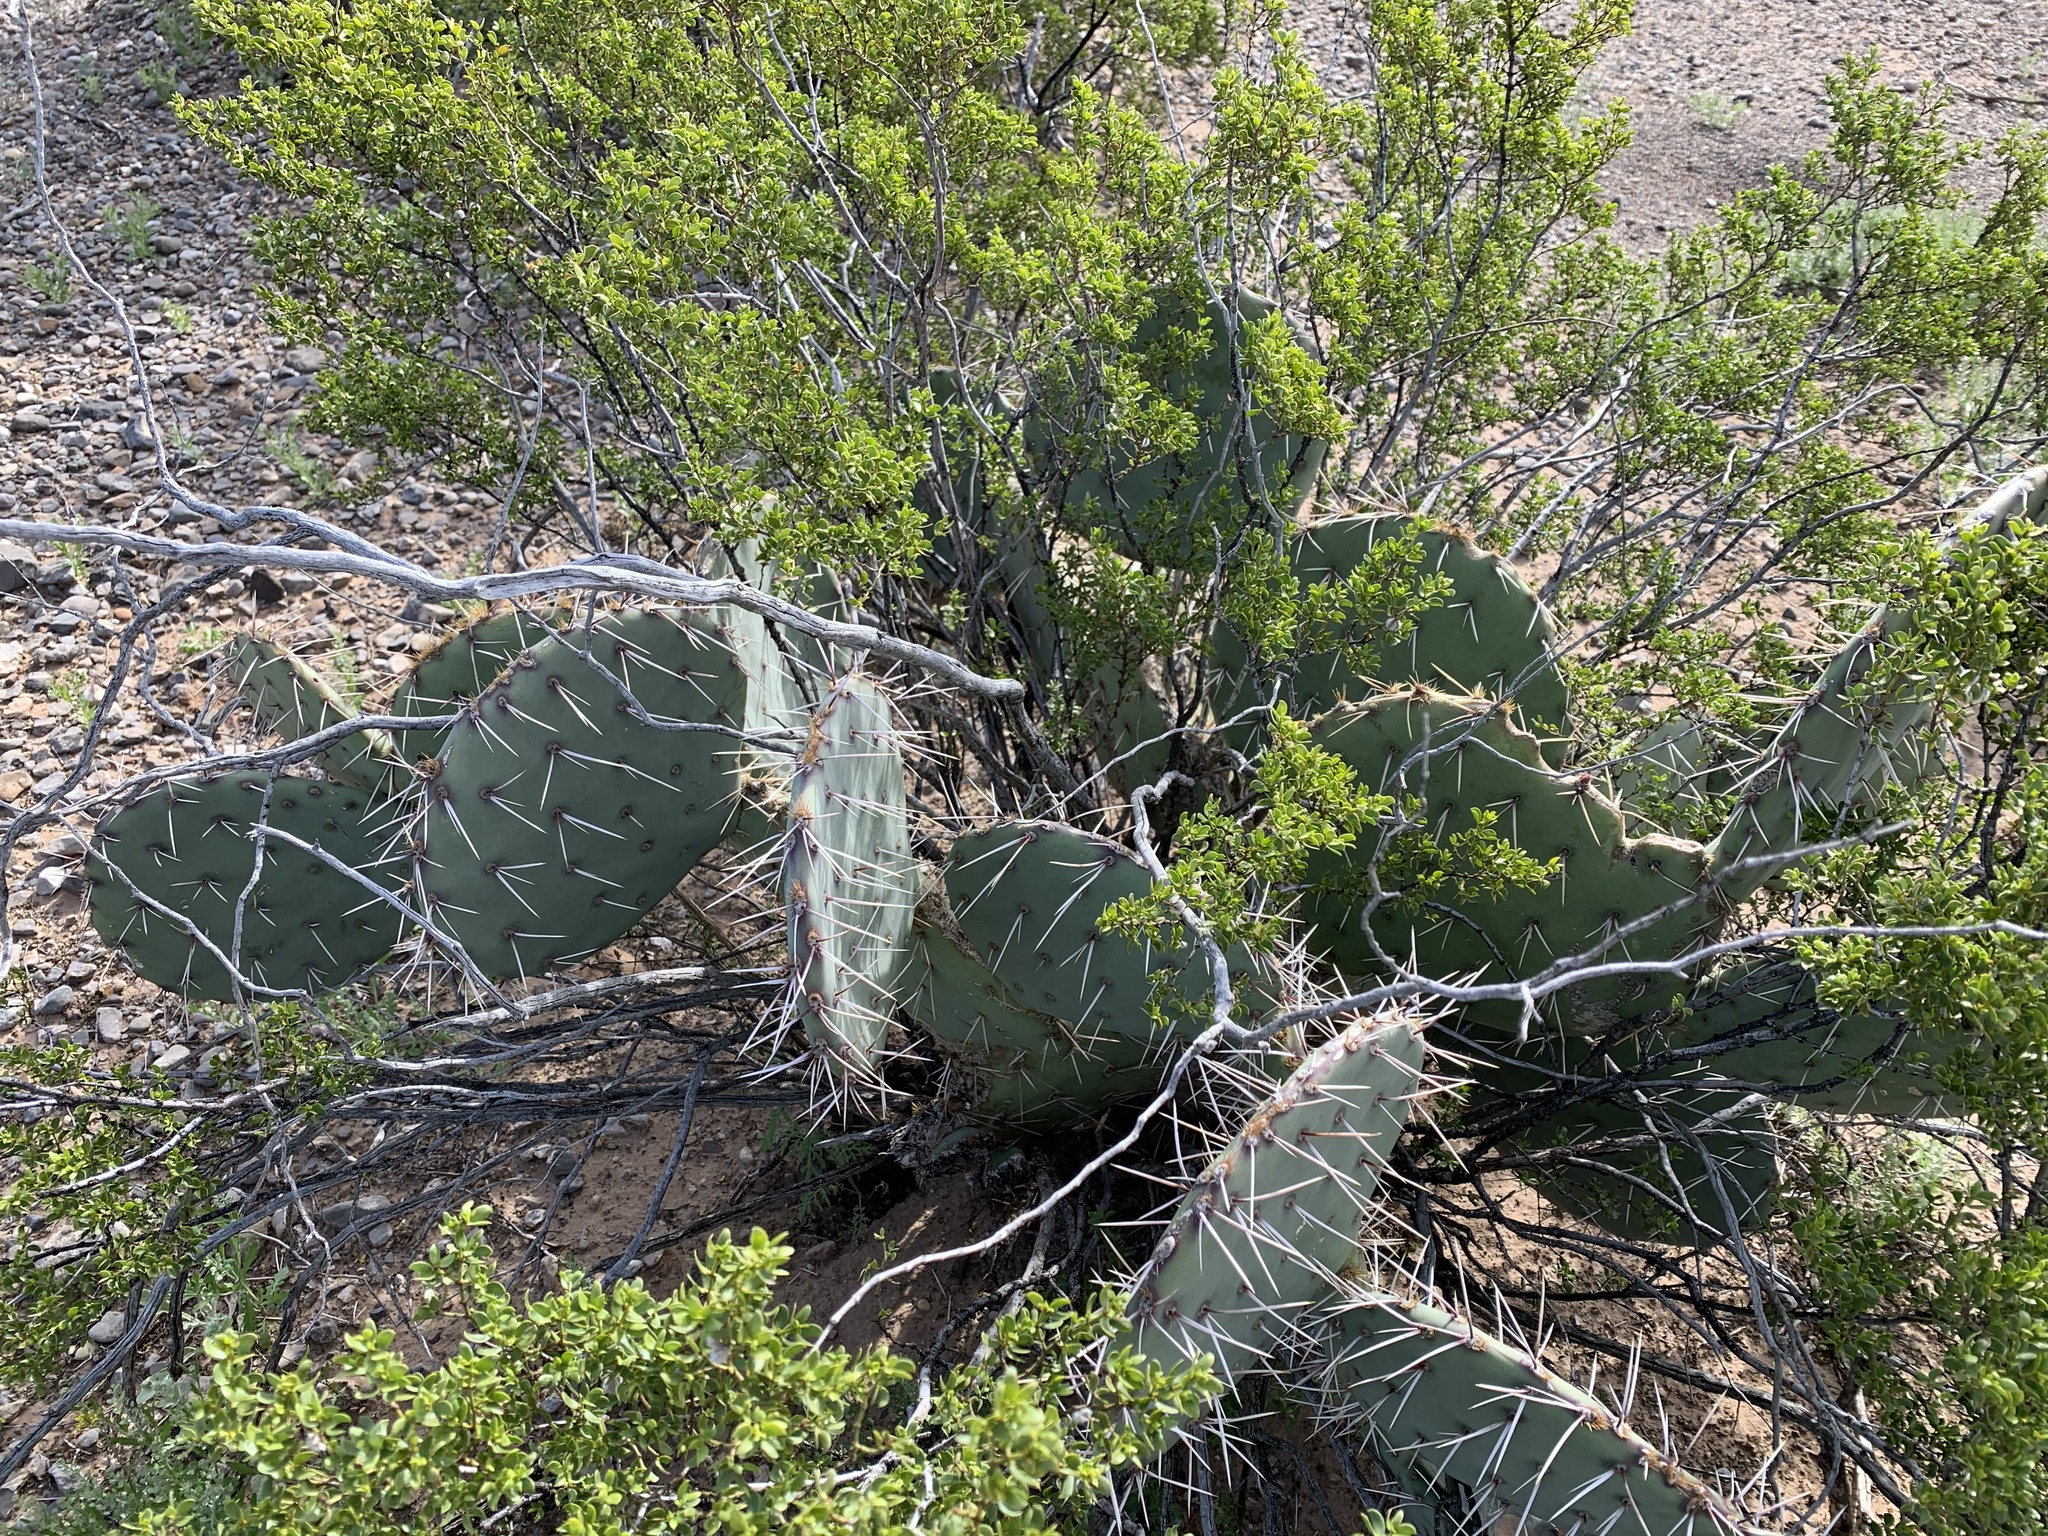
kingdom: Plantae
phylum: Tracheophyta
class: Magnoliopsida
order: Caryophyllales
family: Cactaceae
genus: Opuntia
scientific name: Opuntia engelmannii
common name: Cactus-apple
